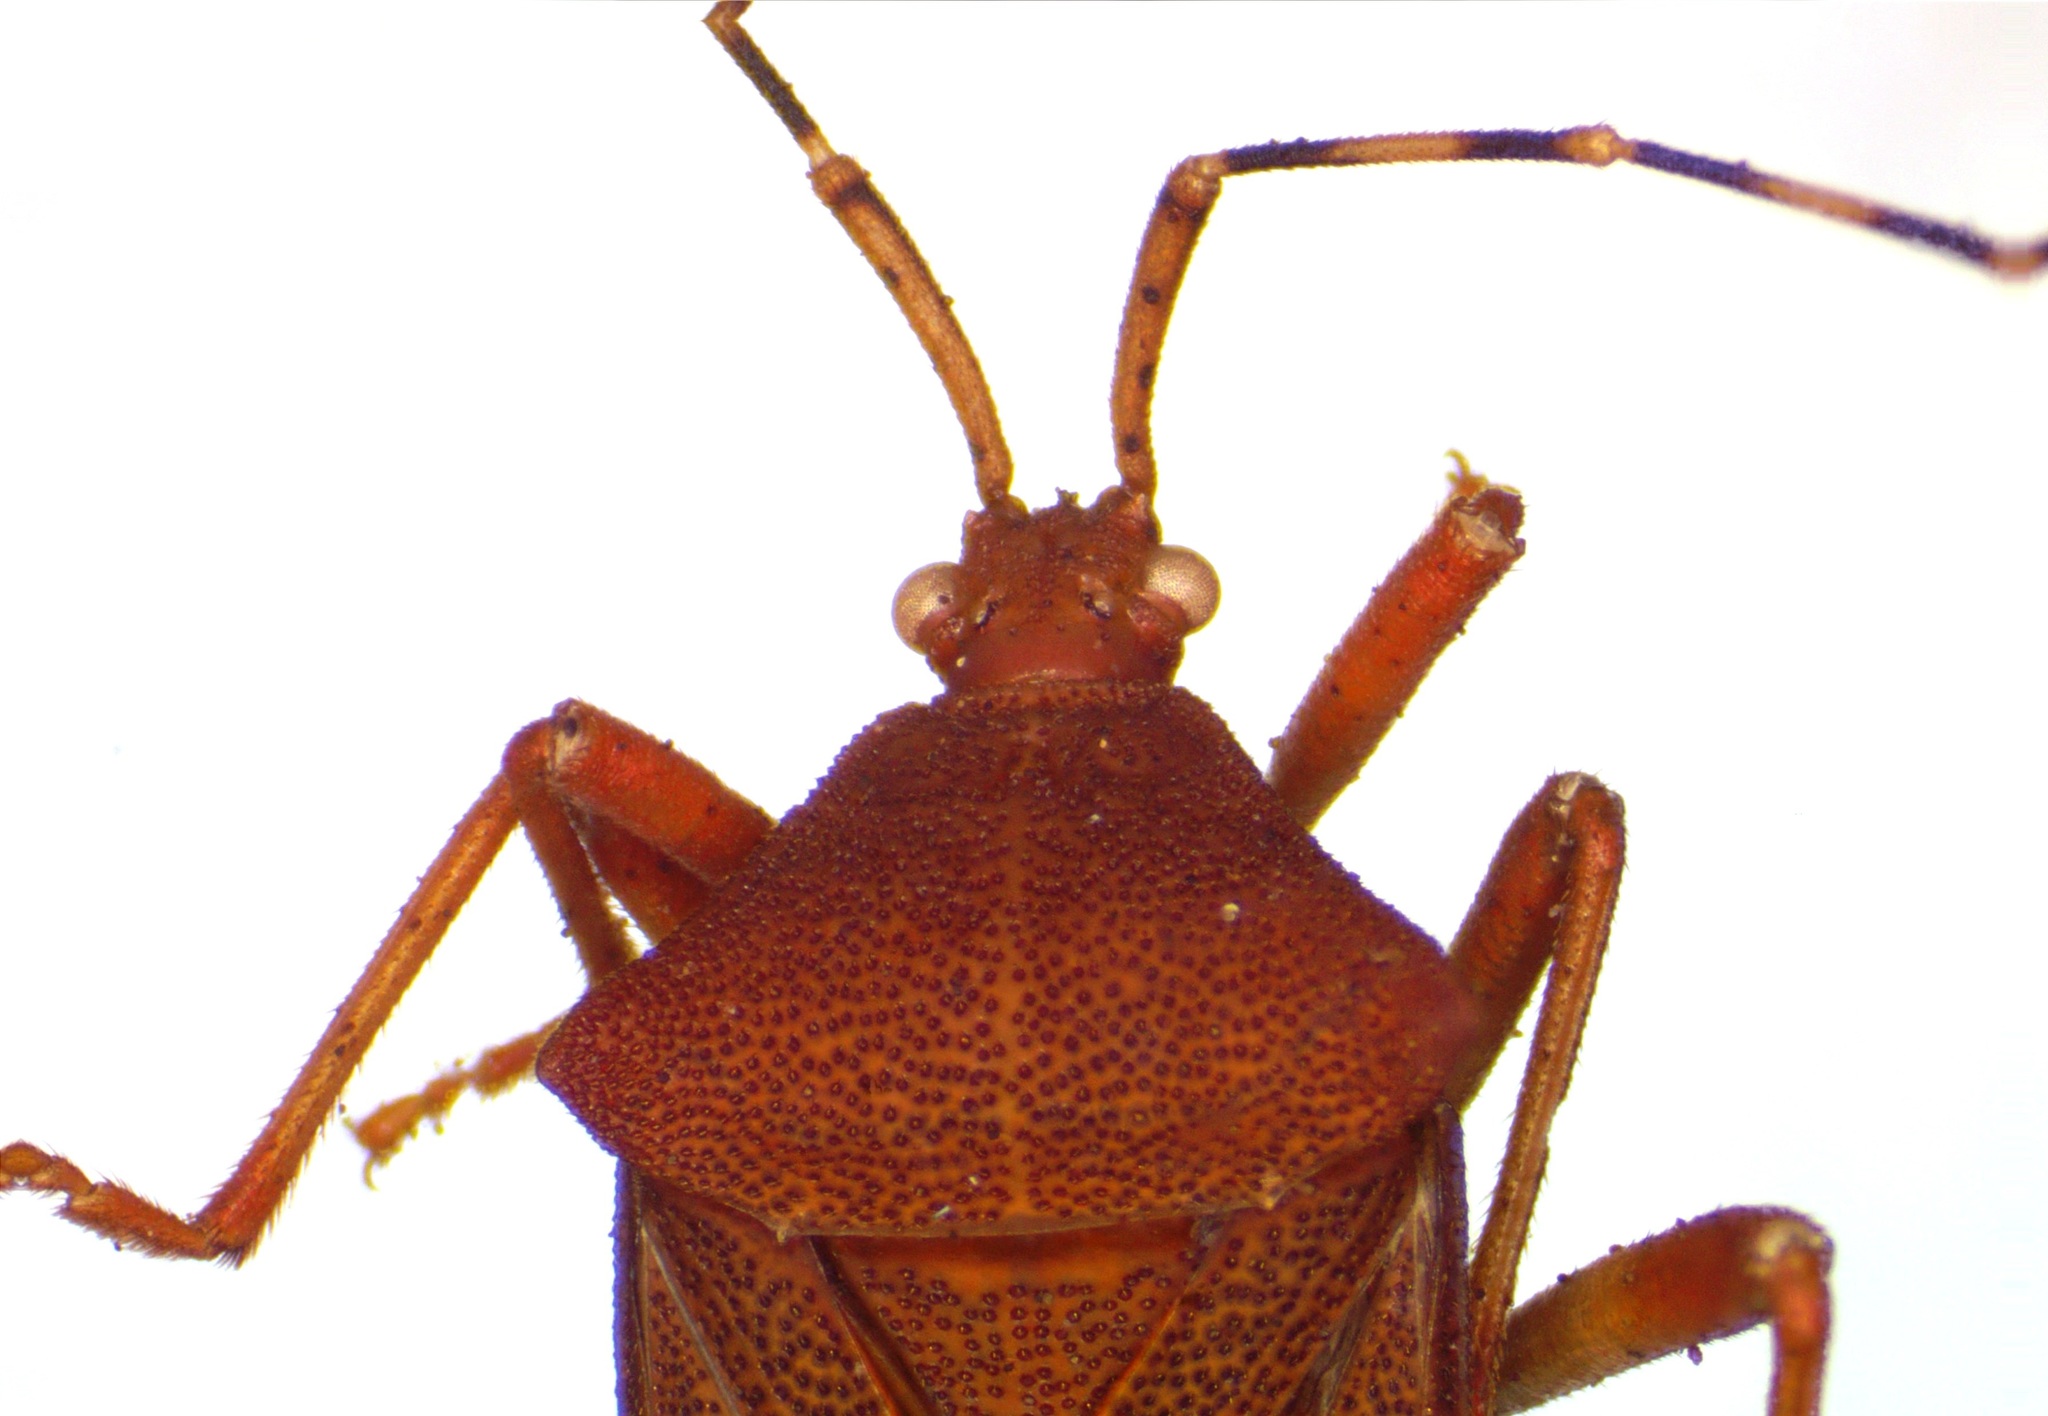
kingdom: Animalia
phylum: Arthropoda
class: Insecta
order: Hemiptera
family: Coreidae
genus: Anasa
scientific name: Anasa bellator
